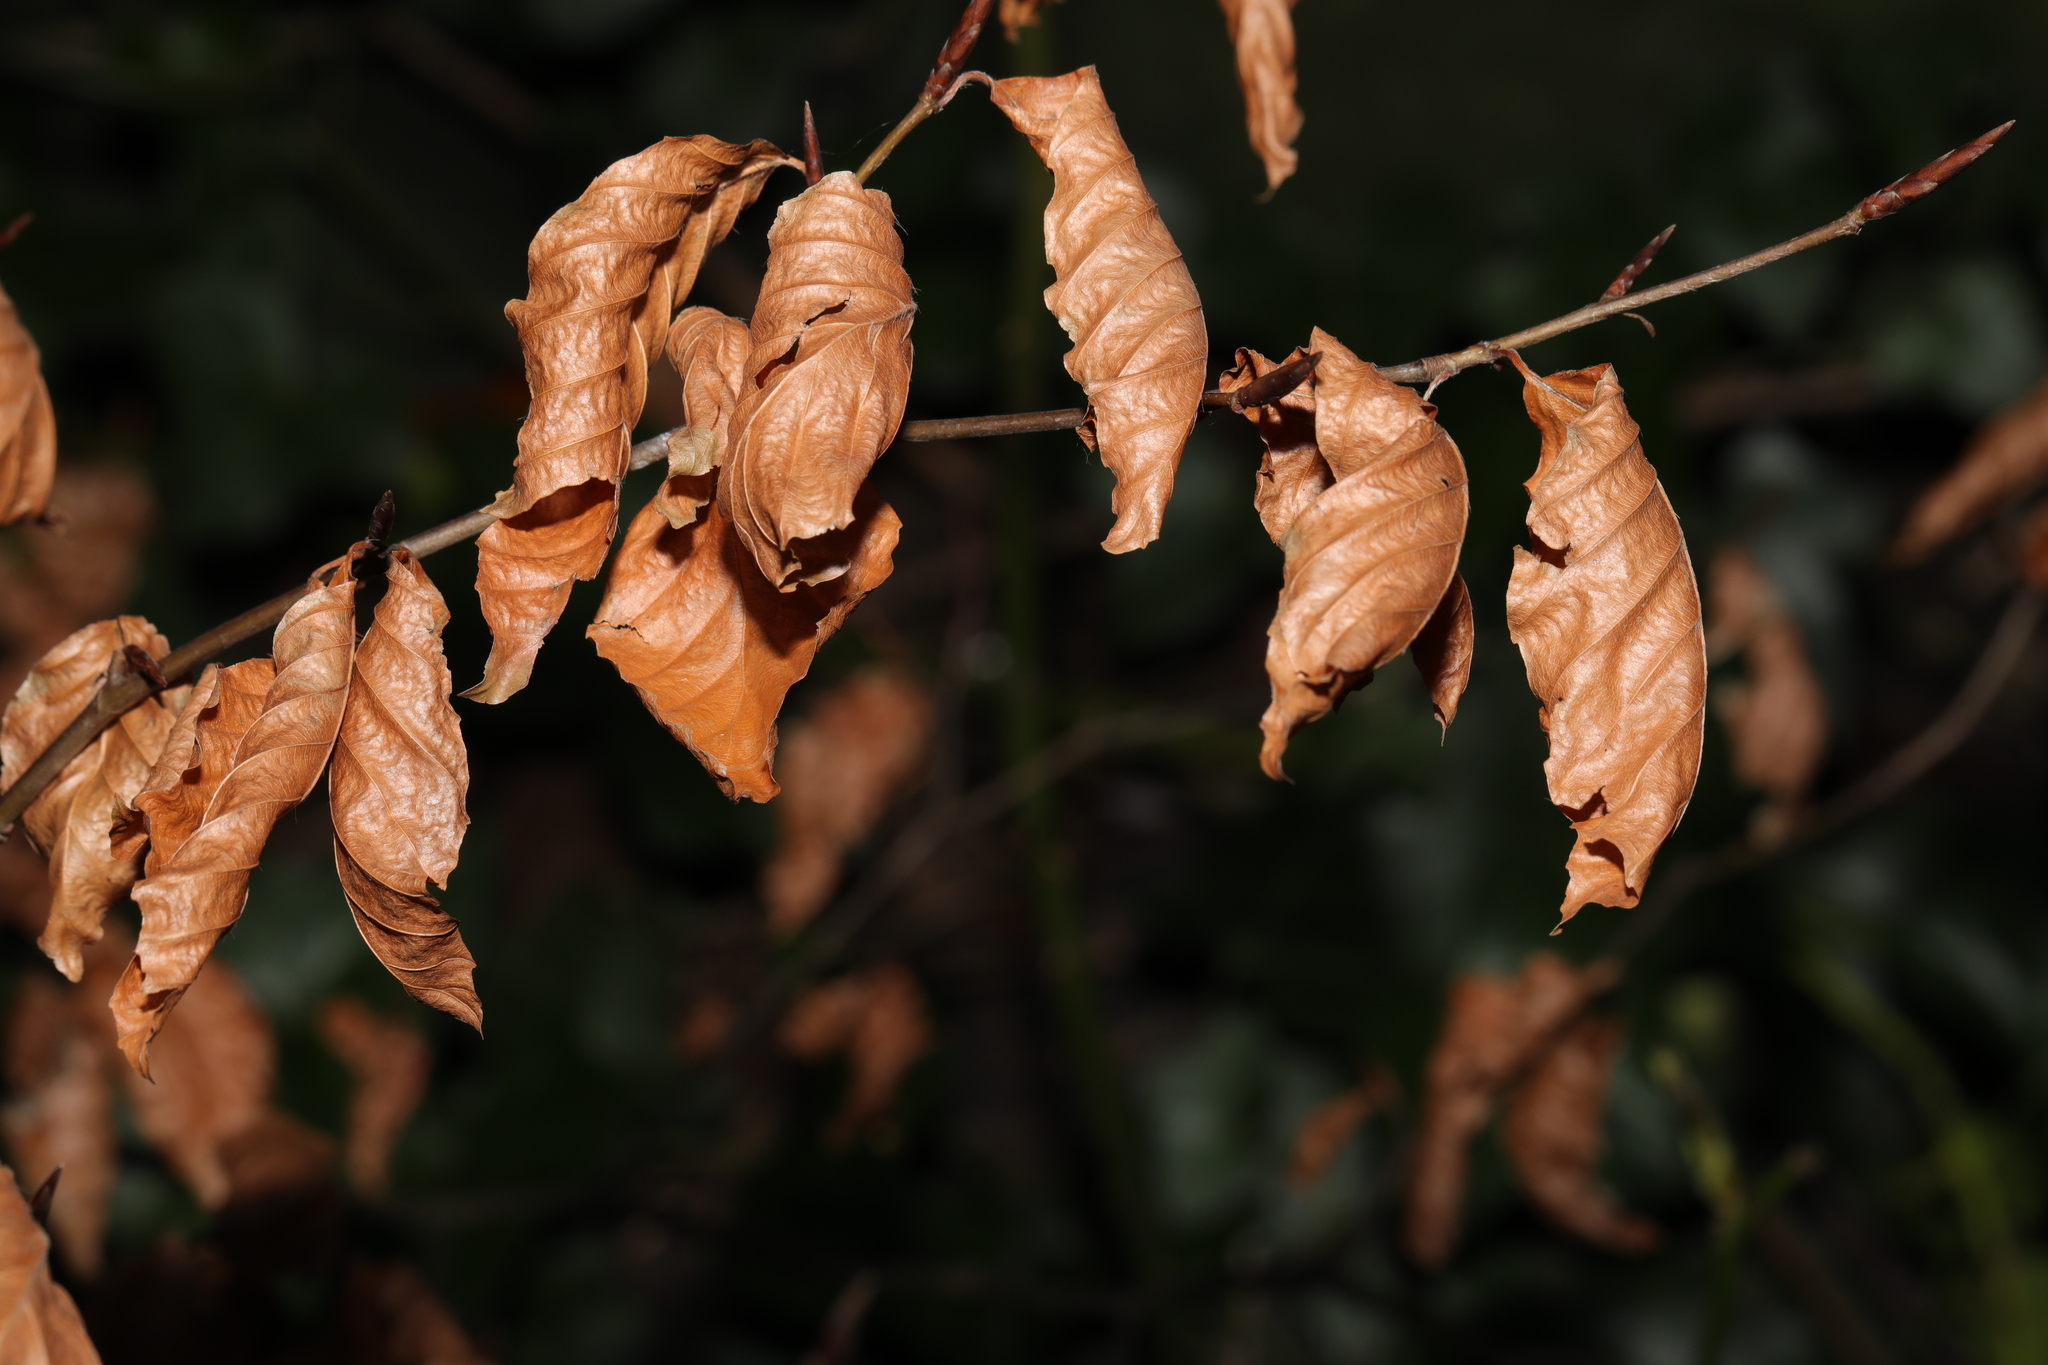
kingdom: Plantae
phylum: Tracheophyta
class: Magnoliopsida
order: Fagales
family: Fagaceae
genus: Fagus
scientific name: Fagus sylvatica
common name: Beech
